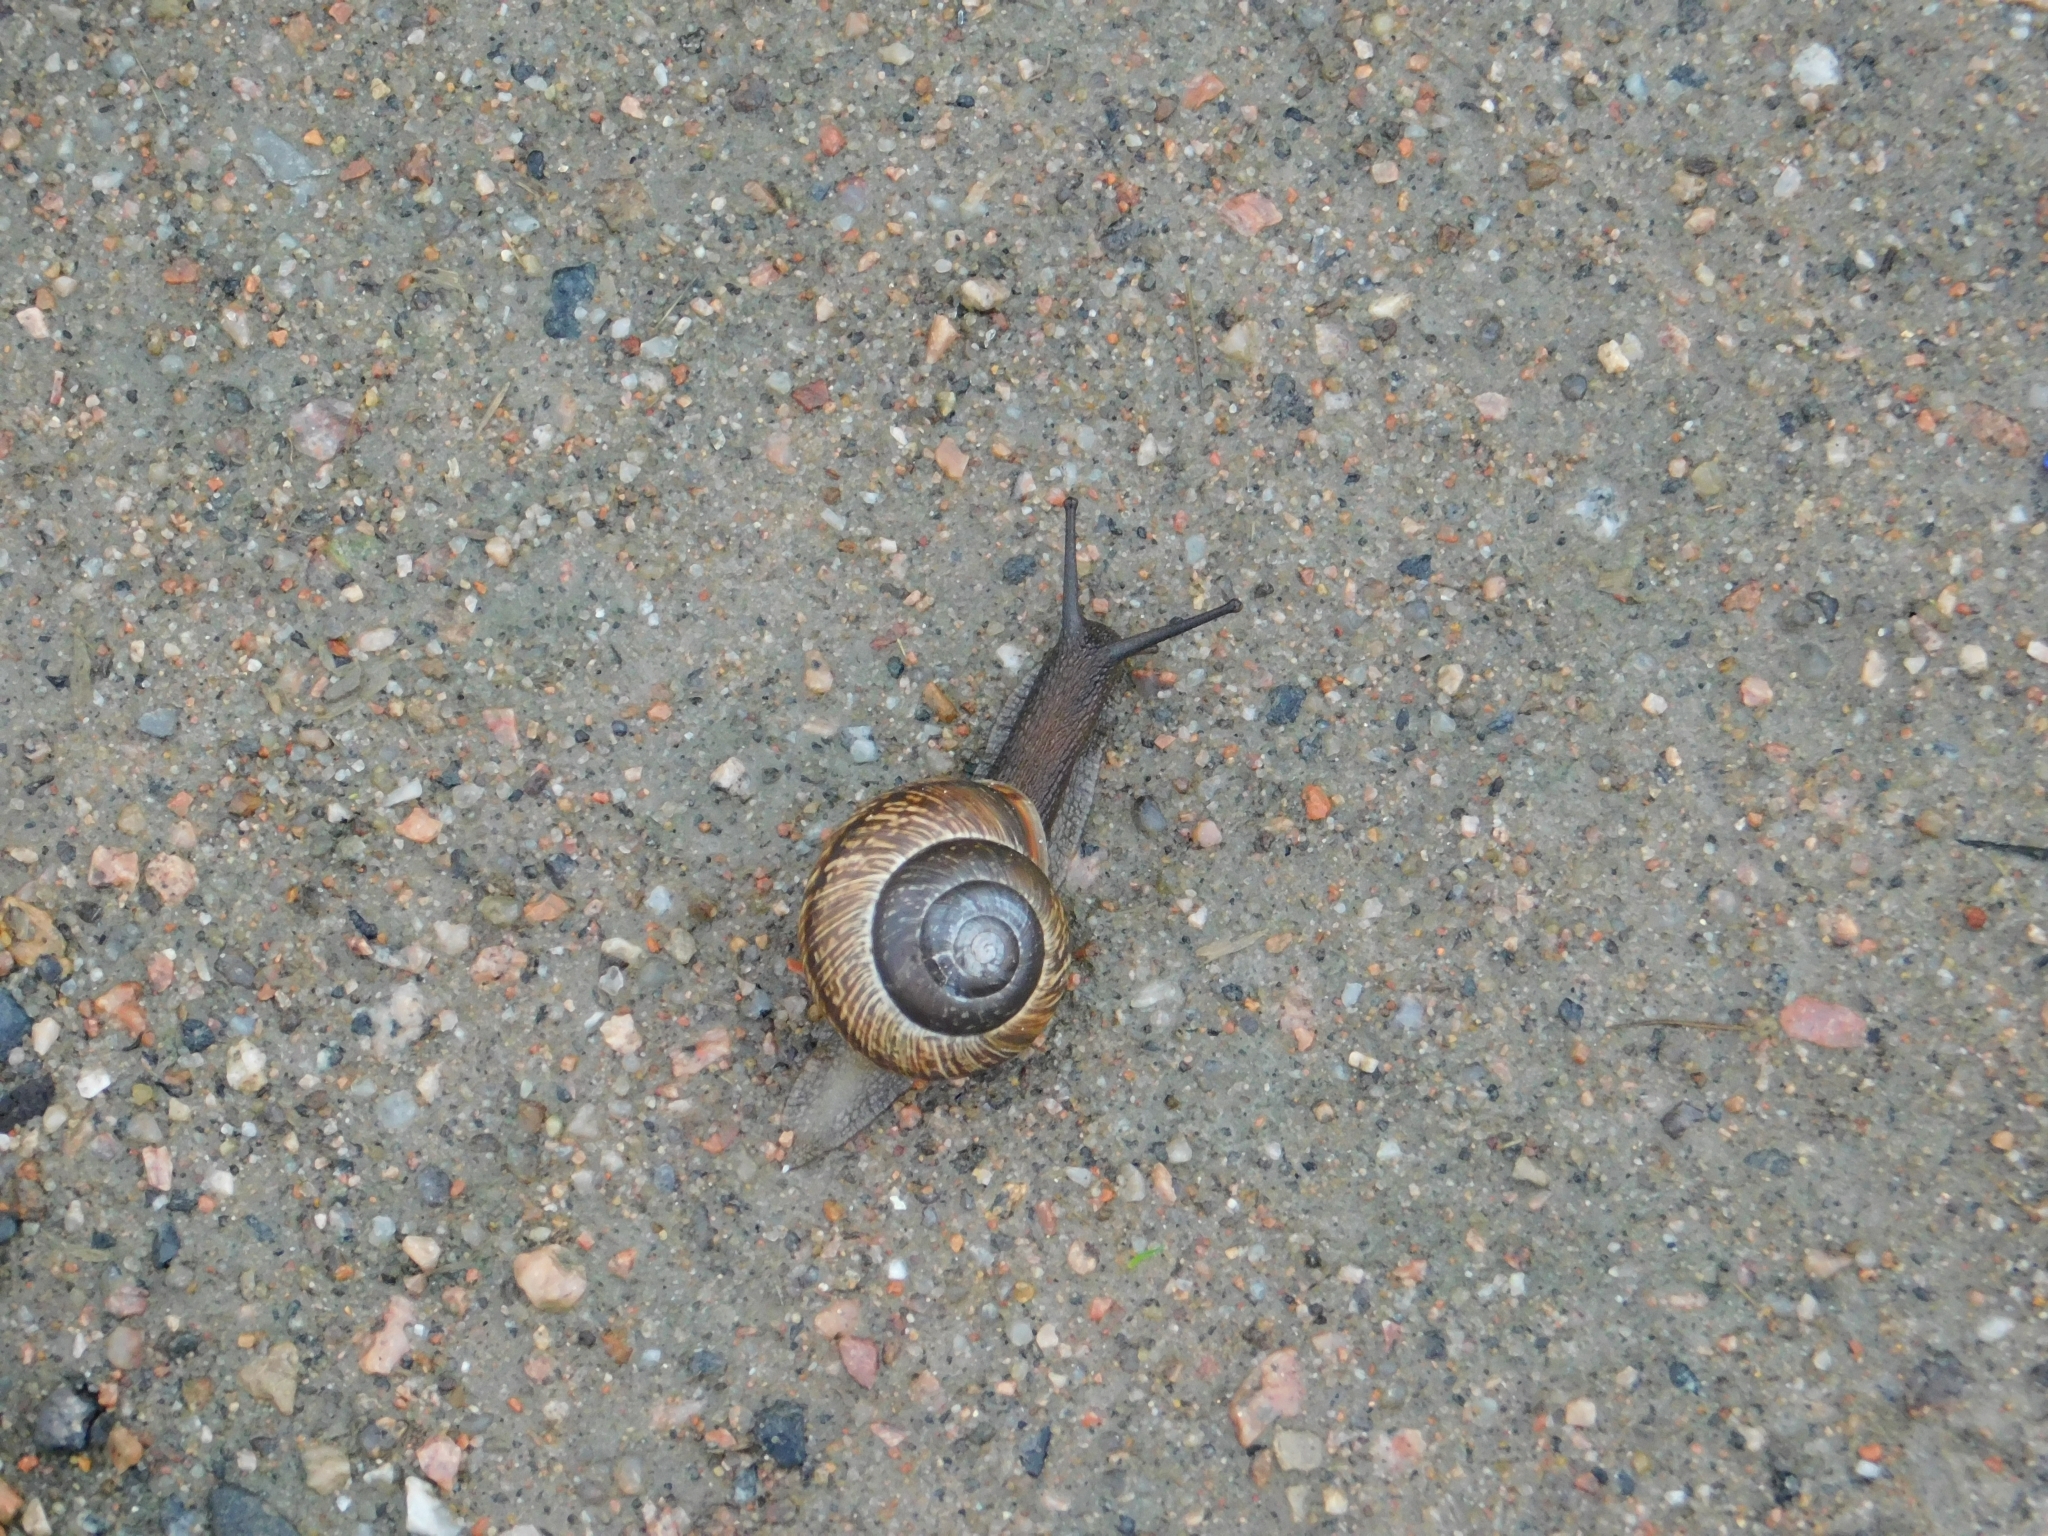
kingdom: Animalia
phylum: Mollusca
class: Gastropoda
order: Stylommatophora
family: Helicidae
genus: Arianta
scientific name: Arianta arbustorum
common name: Copse snail
